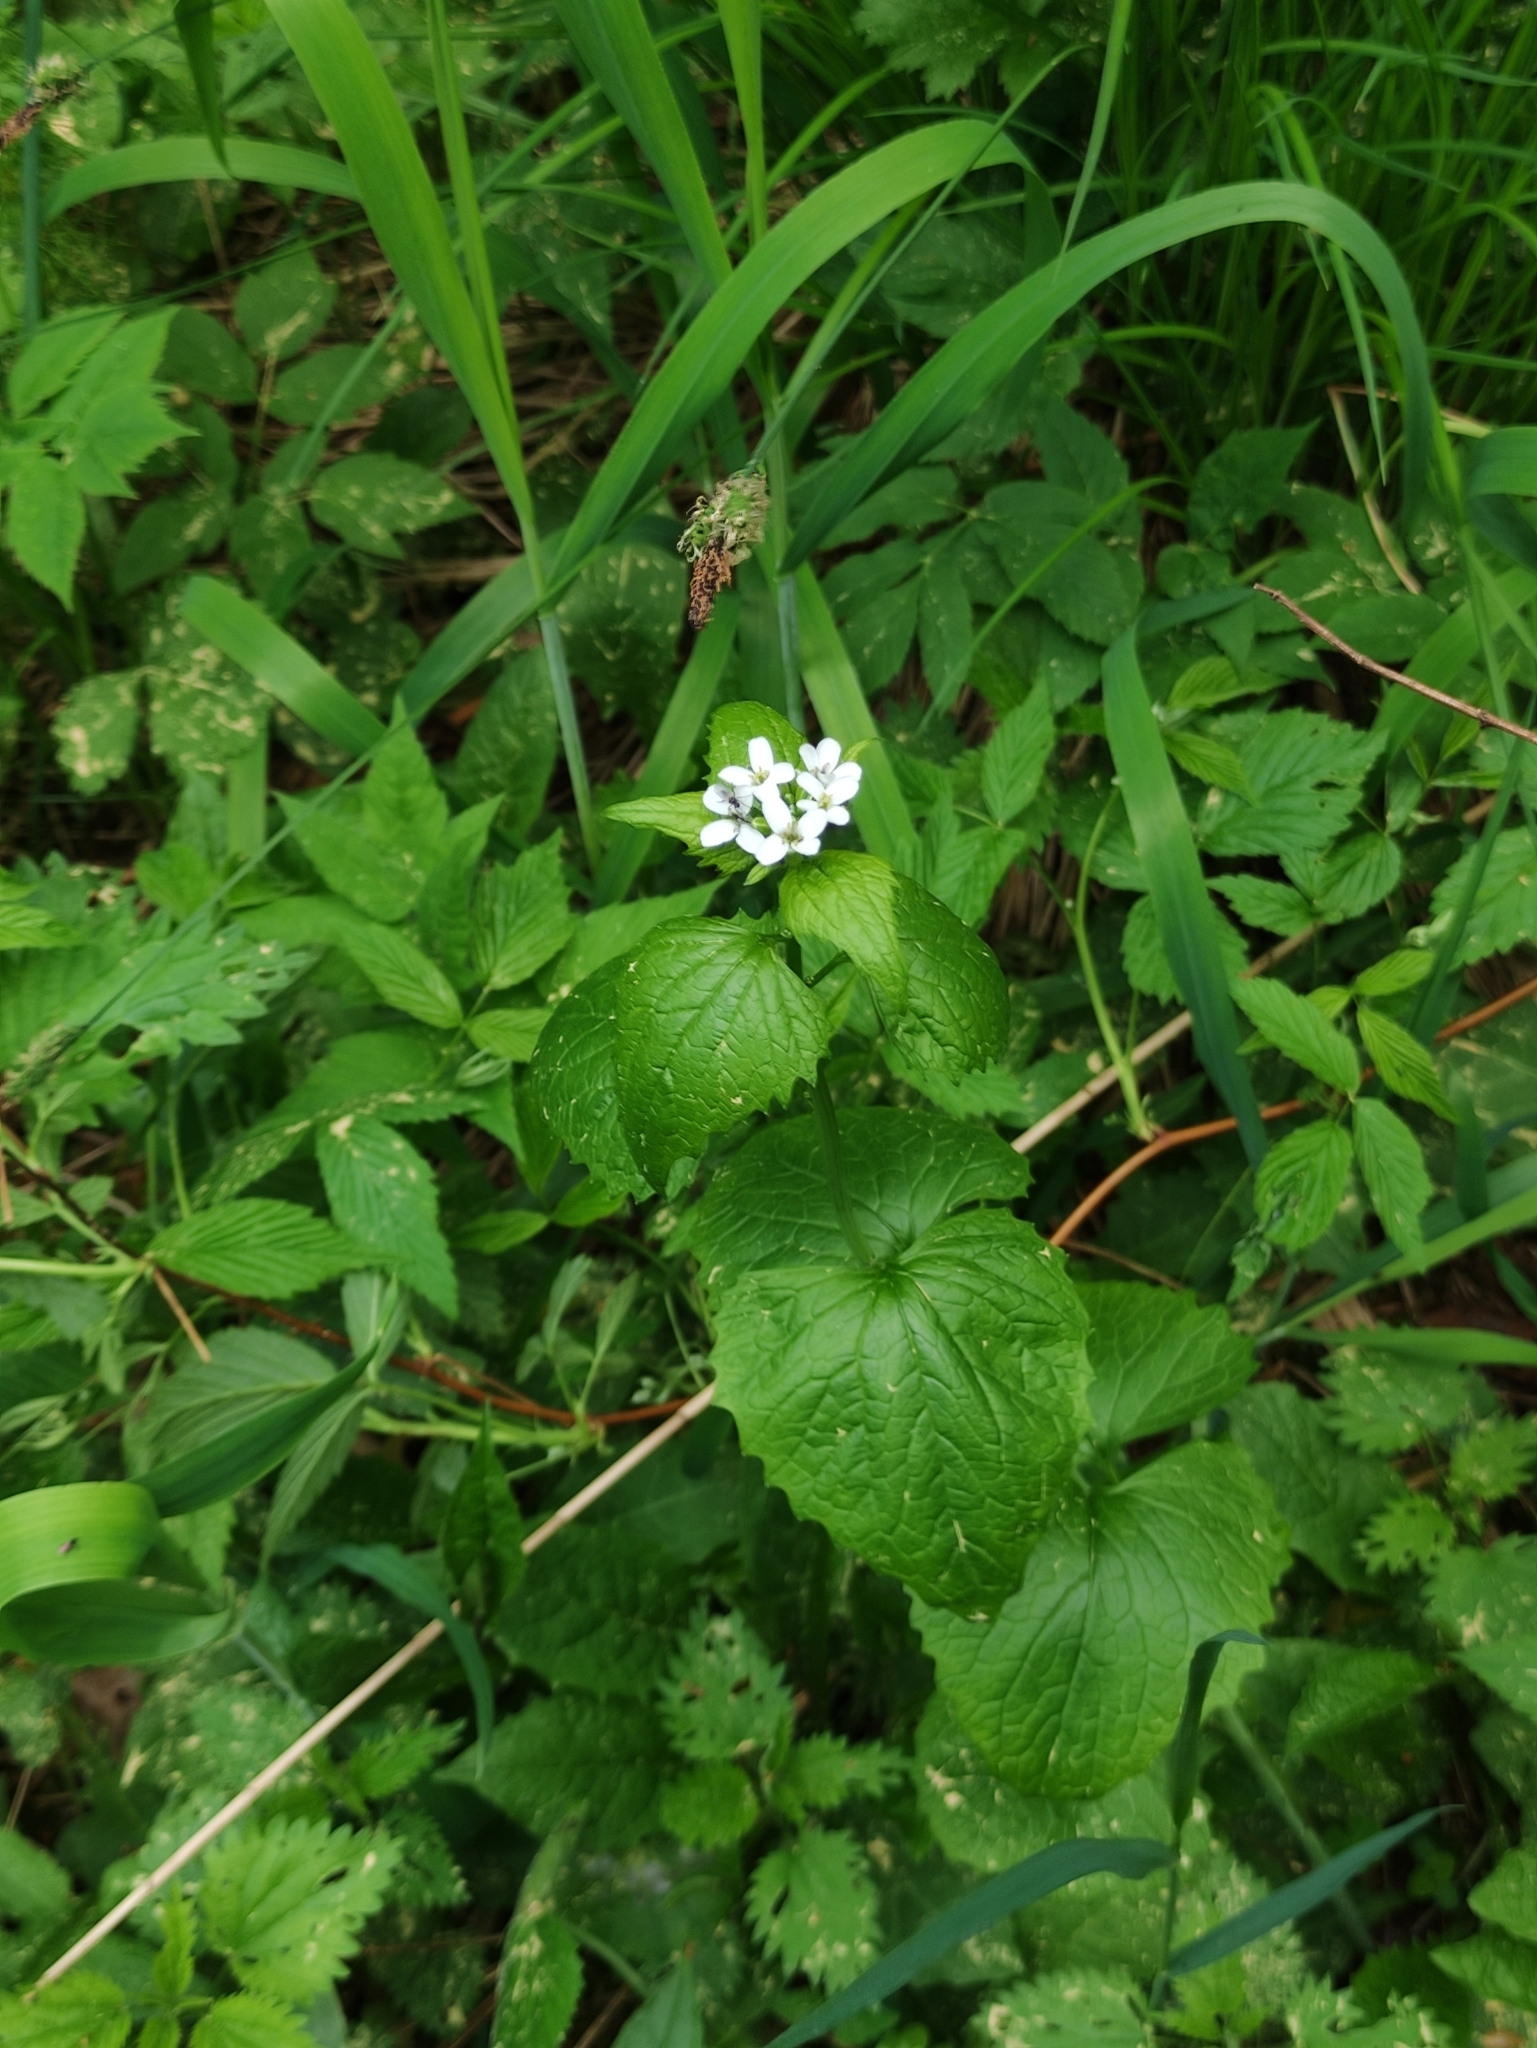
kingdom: Plantae
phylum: Tracheophyta
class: Magnoliopsida
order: Brassicales
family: Brassicaceae
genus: Alliaria
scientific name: Alliaria petiolata
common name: Garlic mustard
